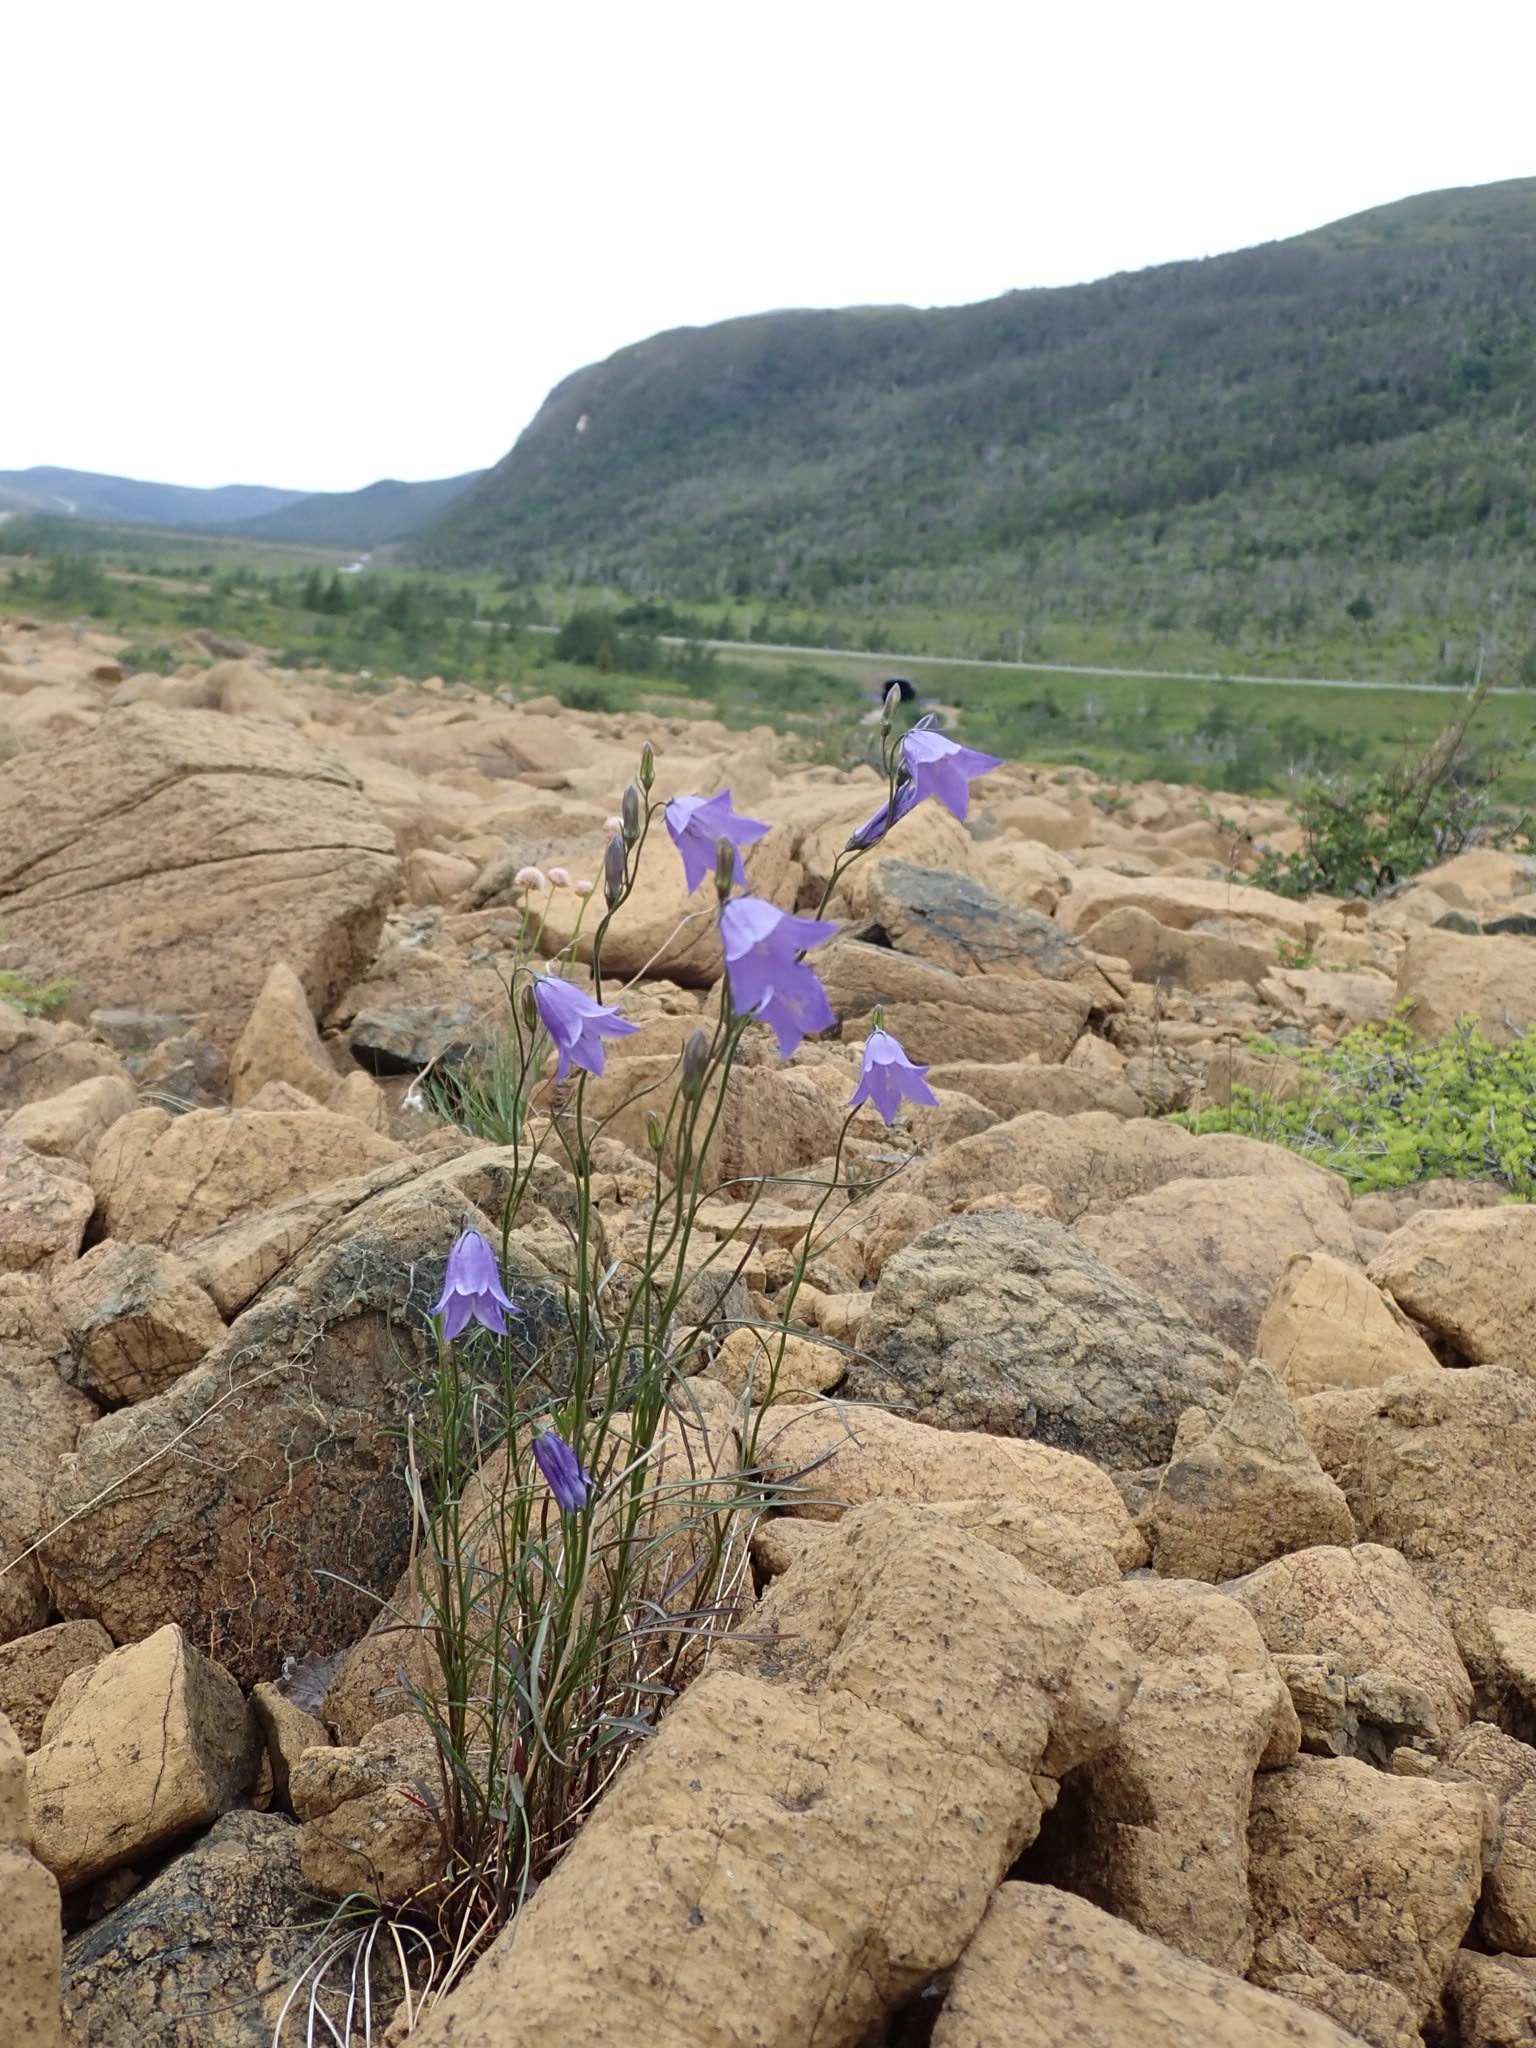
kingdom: Plantae
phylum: Tracheophyta
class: Magnoliopsida
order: Asterales
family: Campanulaceae
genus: Campanula
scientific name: Campanula giesekiana
